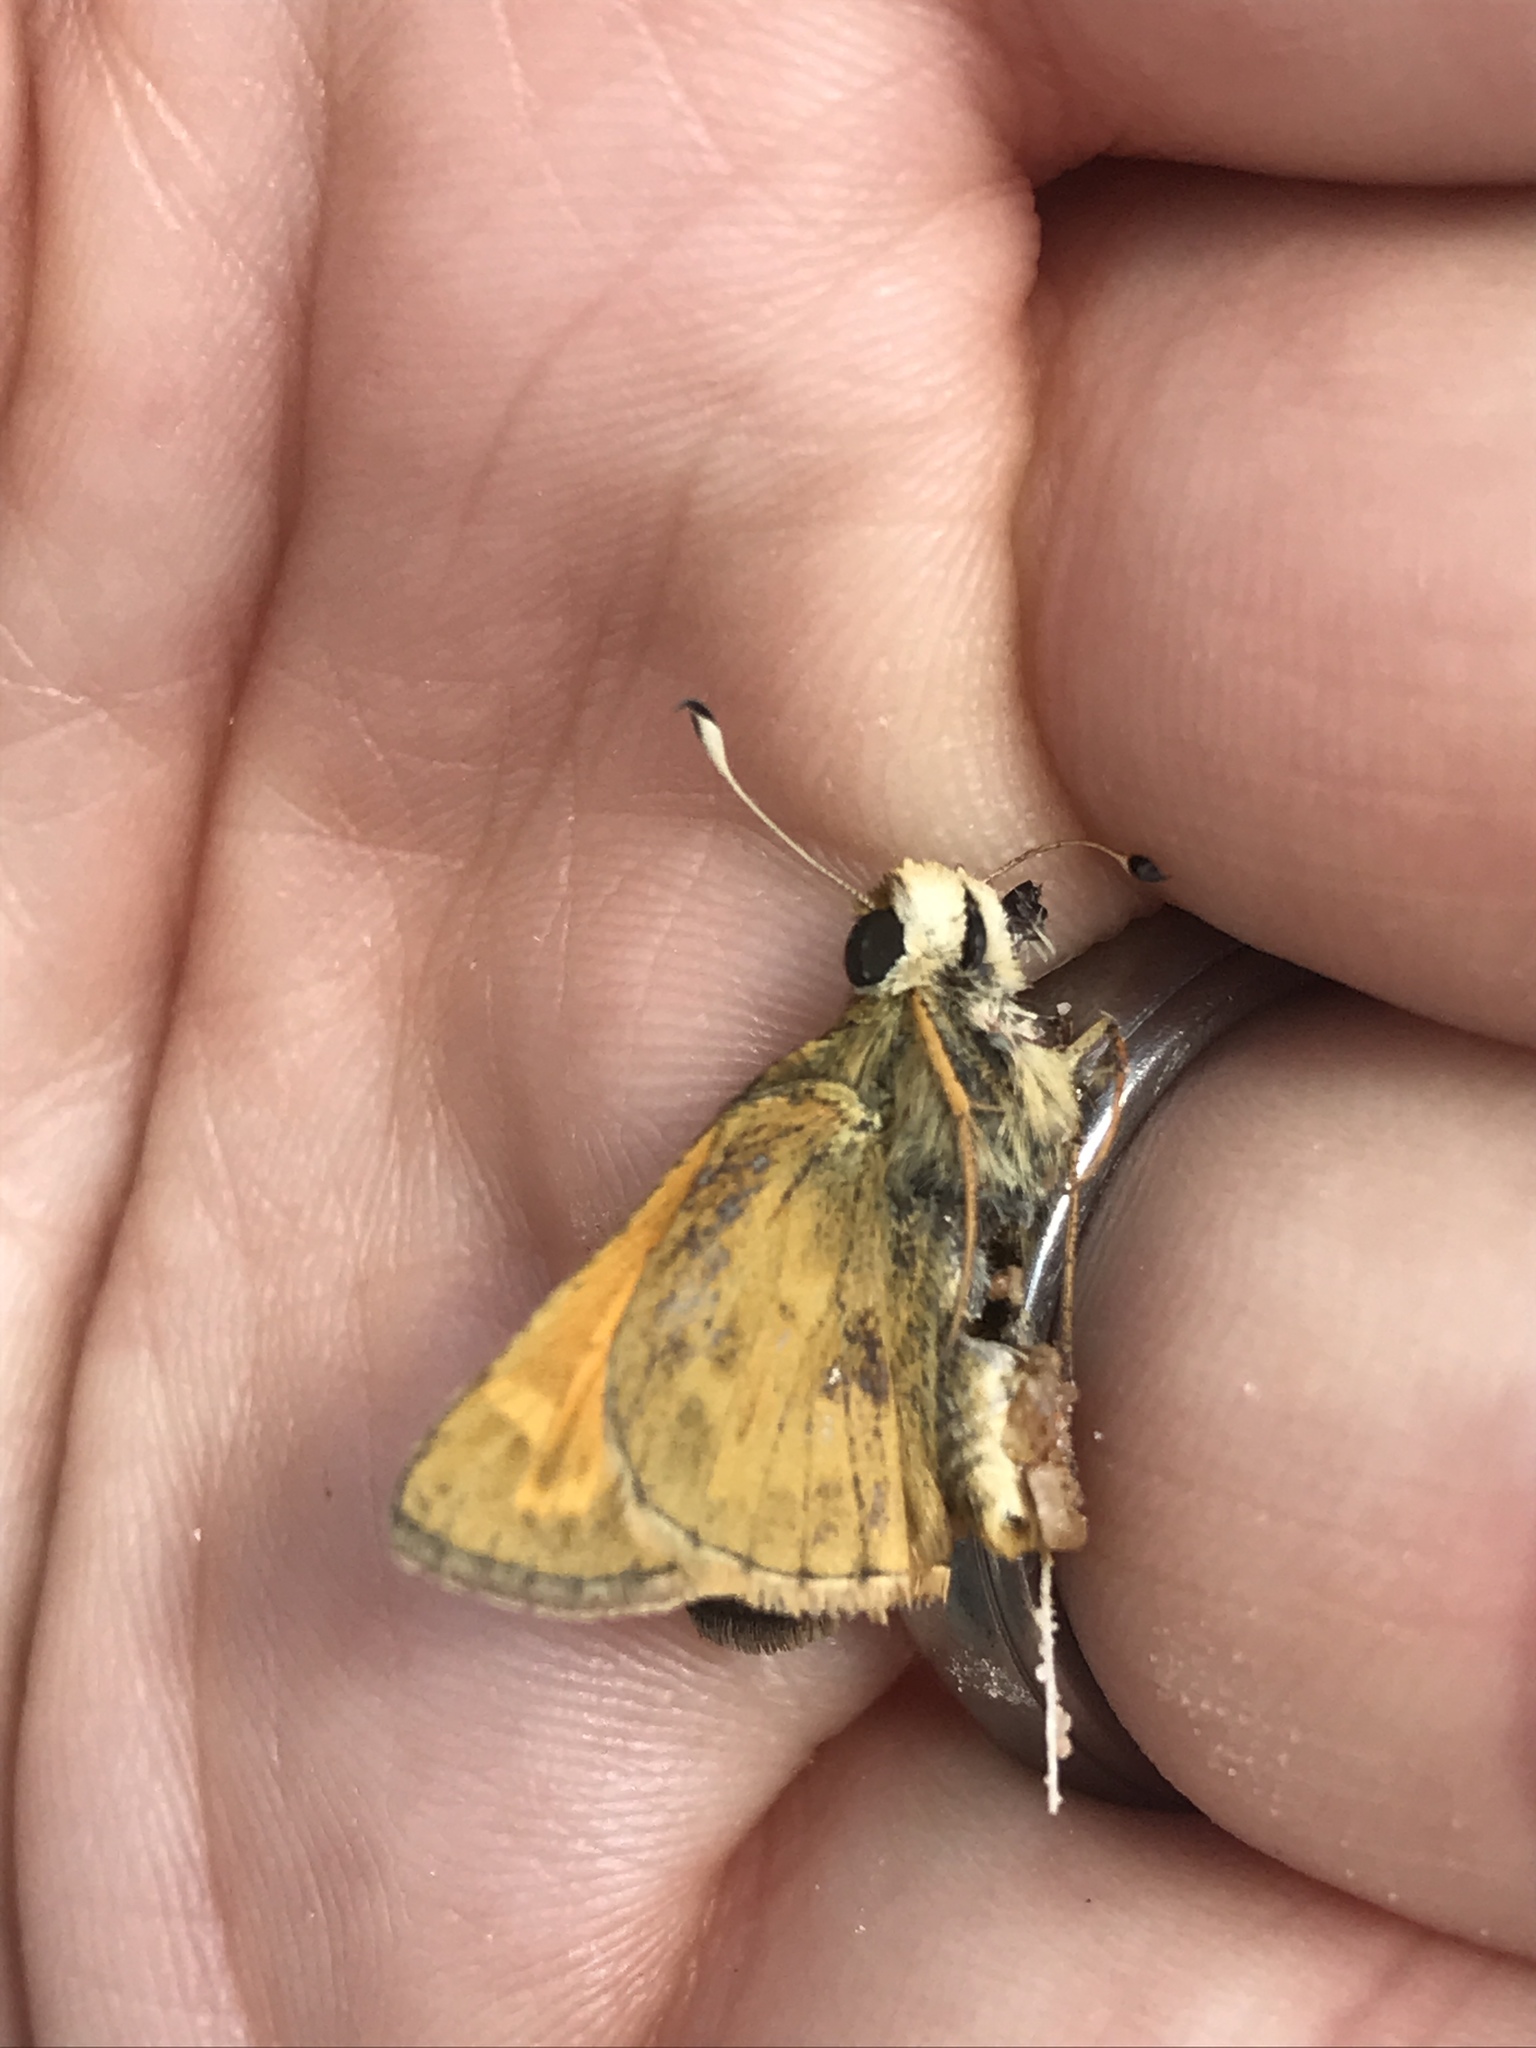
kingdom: Animalia
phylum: Arthropoda
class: Insecta
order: Lepidoptera
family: Hesperiidae
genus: Atalopedes
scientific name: Atalopedes
